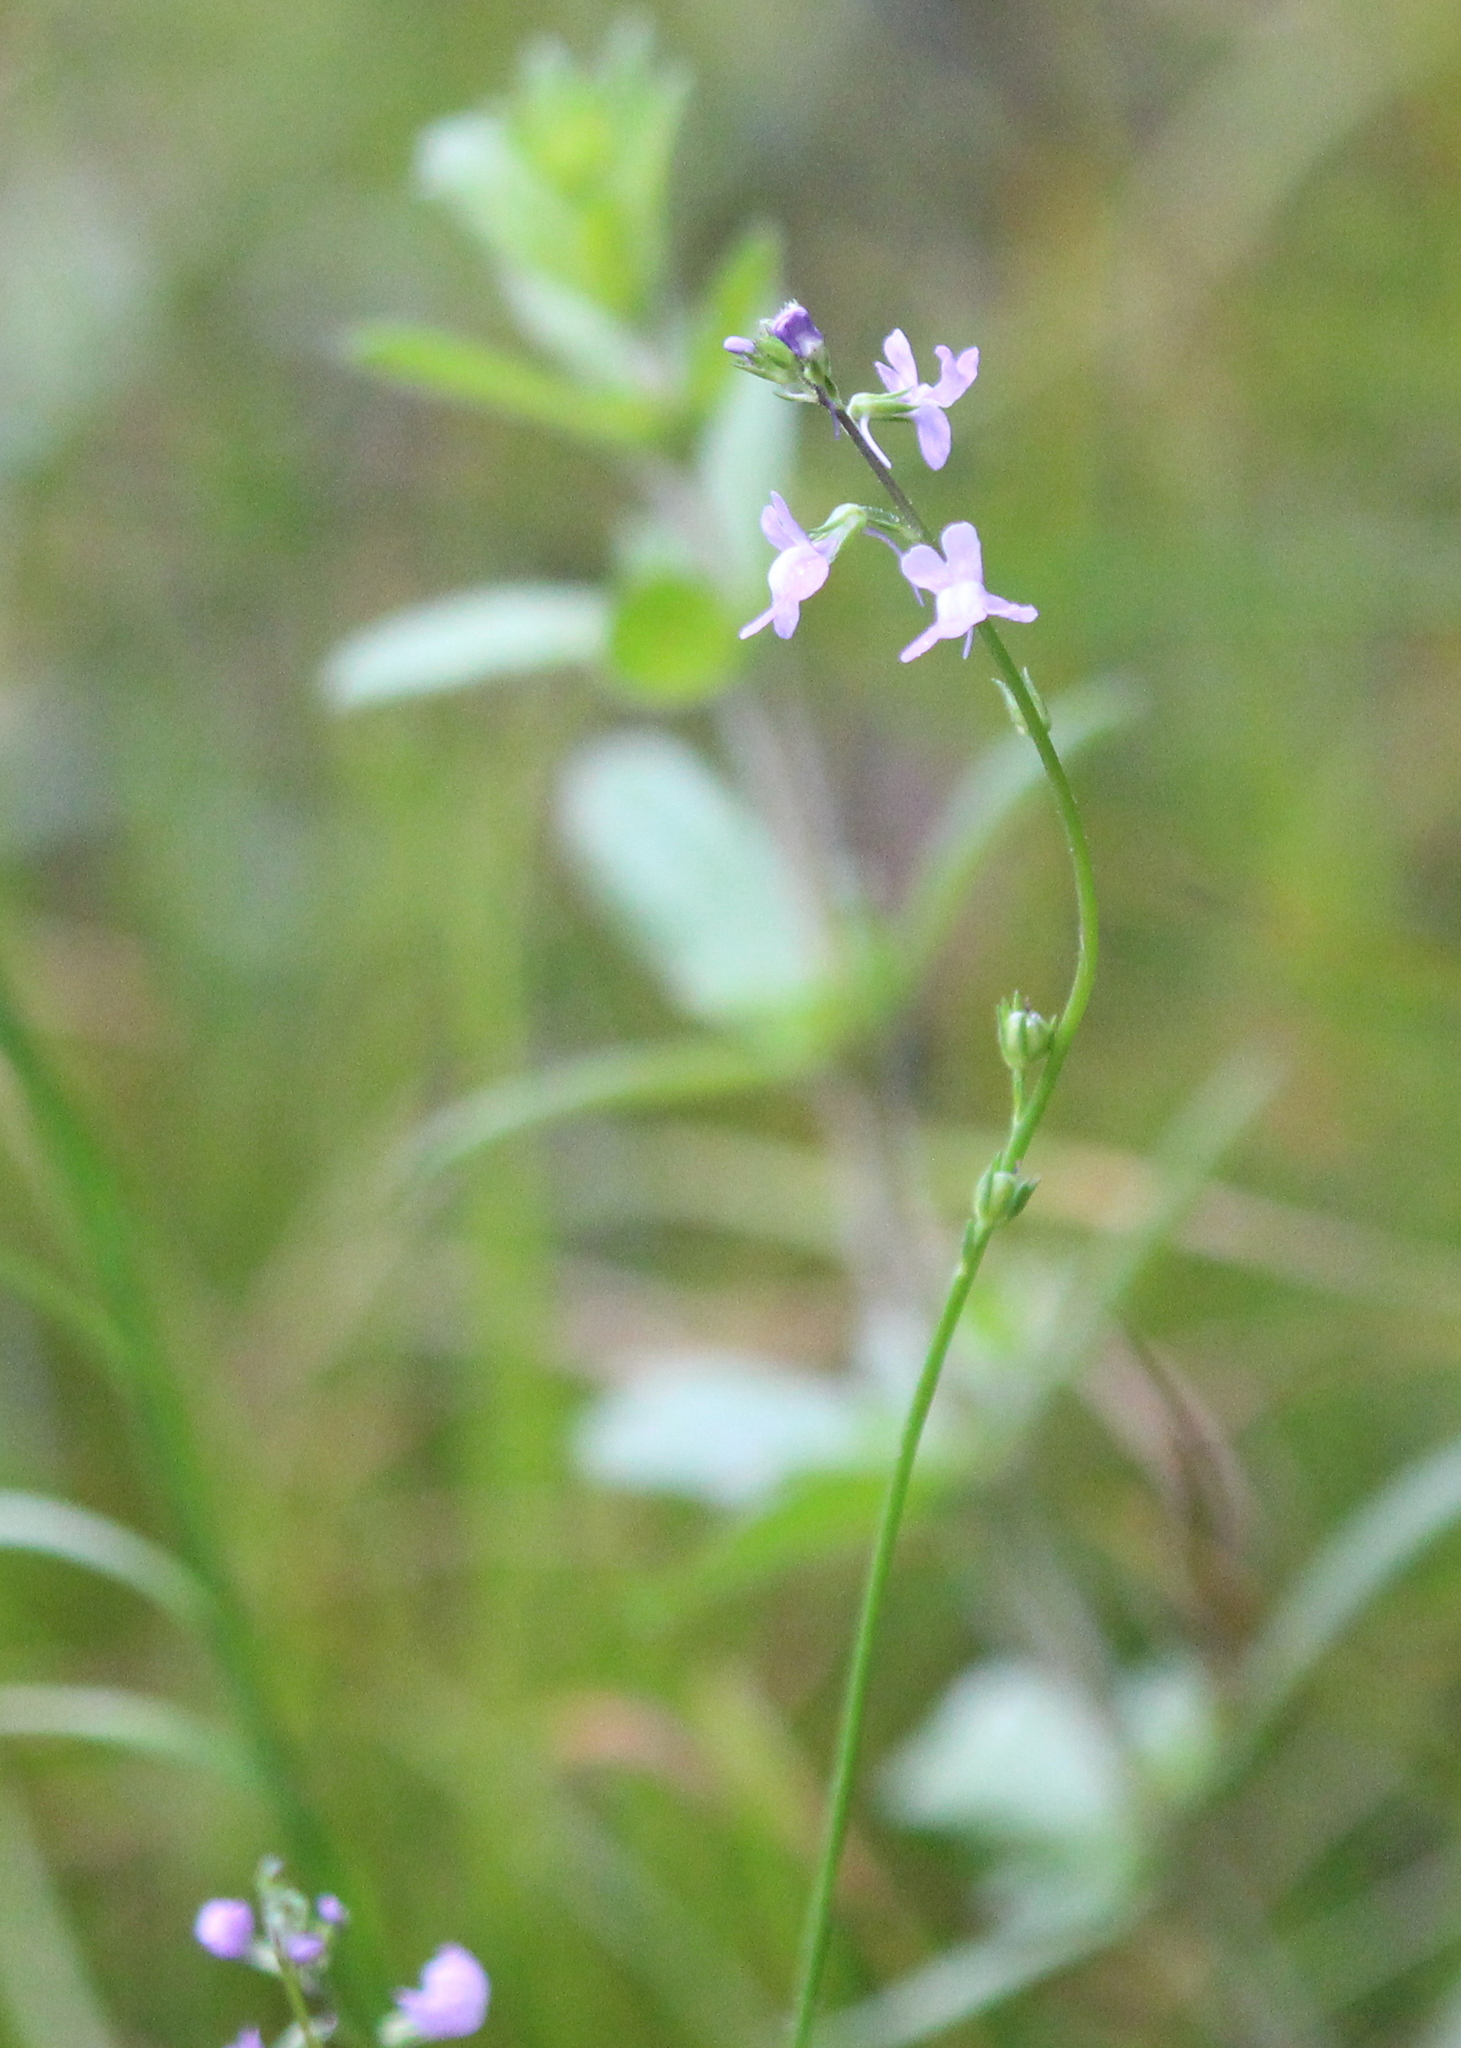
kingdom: Plantae
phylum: Tracheophyta
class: Magnoliopsida
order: Lamiales
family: Plantaginaceae
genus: Nuttallanthus
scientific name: Nuttallanthus canadensis
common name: Blue toadflax
